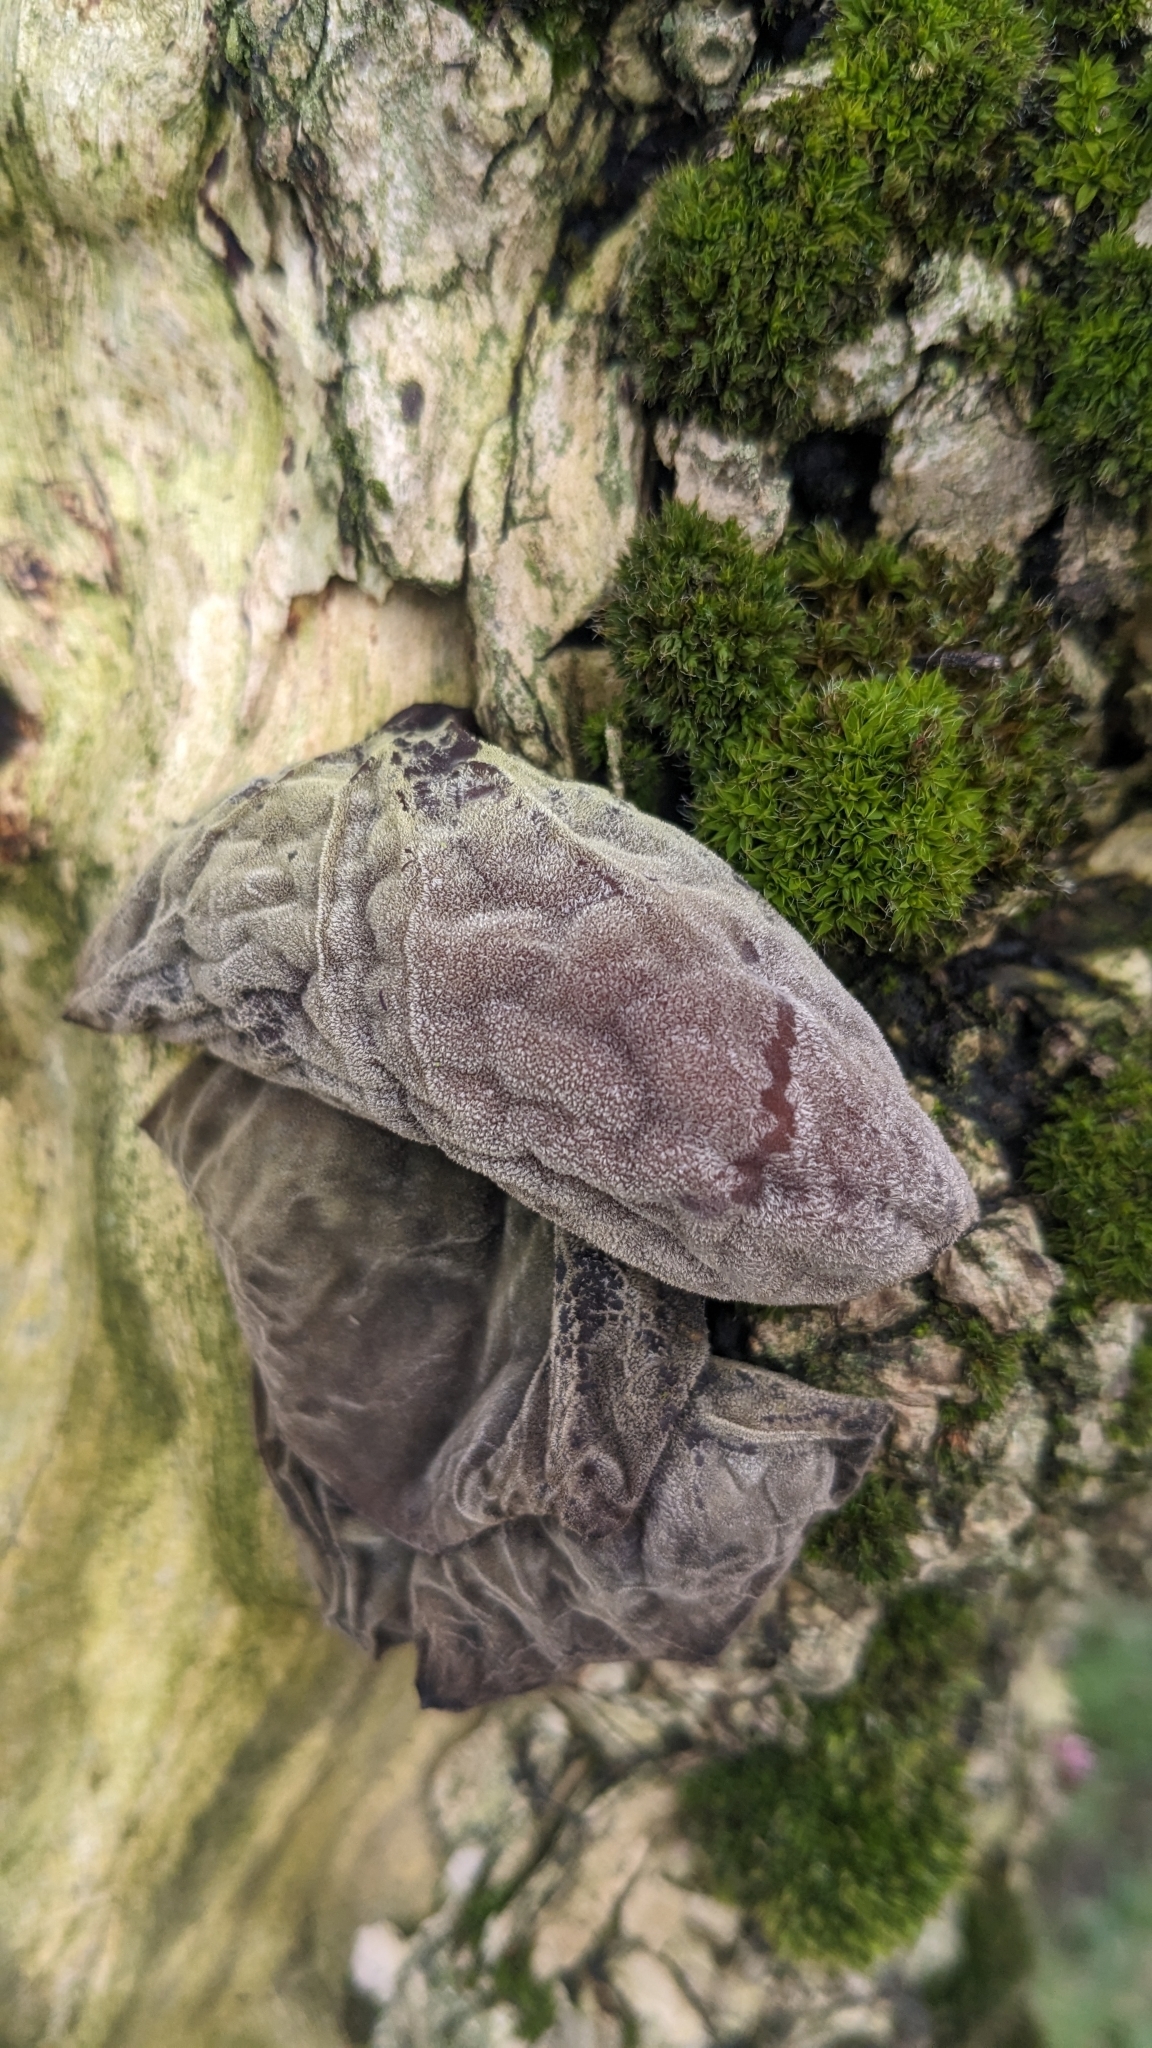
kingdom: Fungi
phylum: Basidiomycota
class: Agaricomycetes
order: Auriculariales
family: Auriculariaceae
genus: Auricularia
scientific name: Auricularia auricula-judae
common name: Jelly ear
